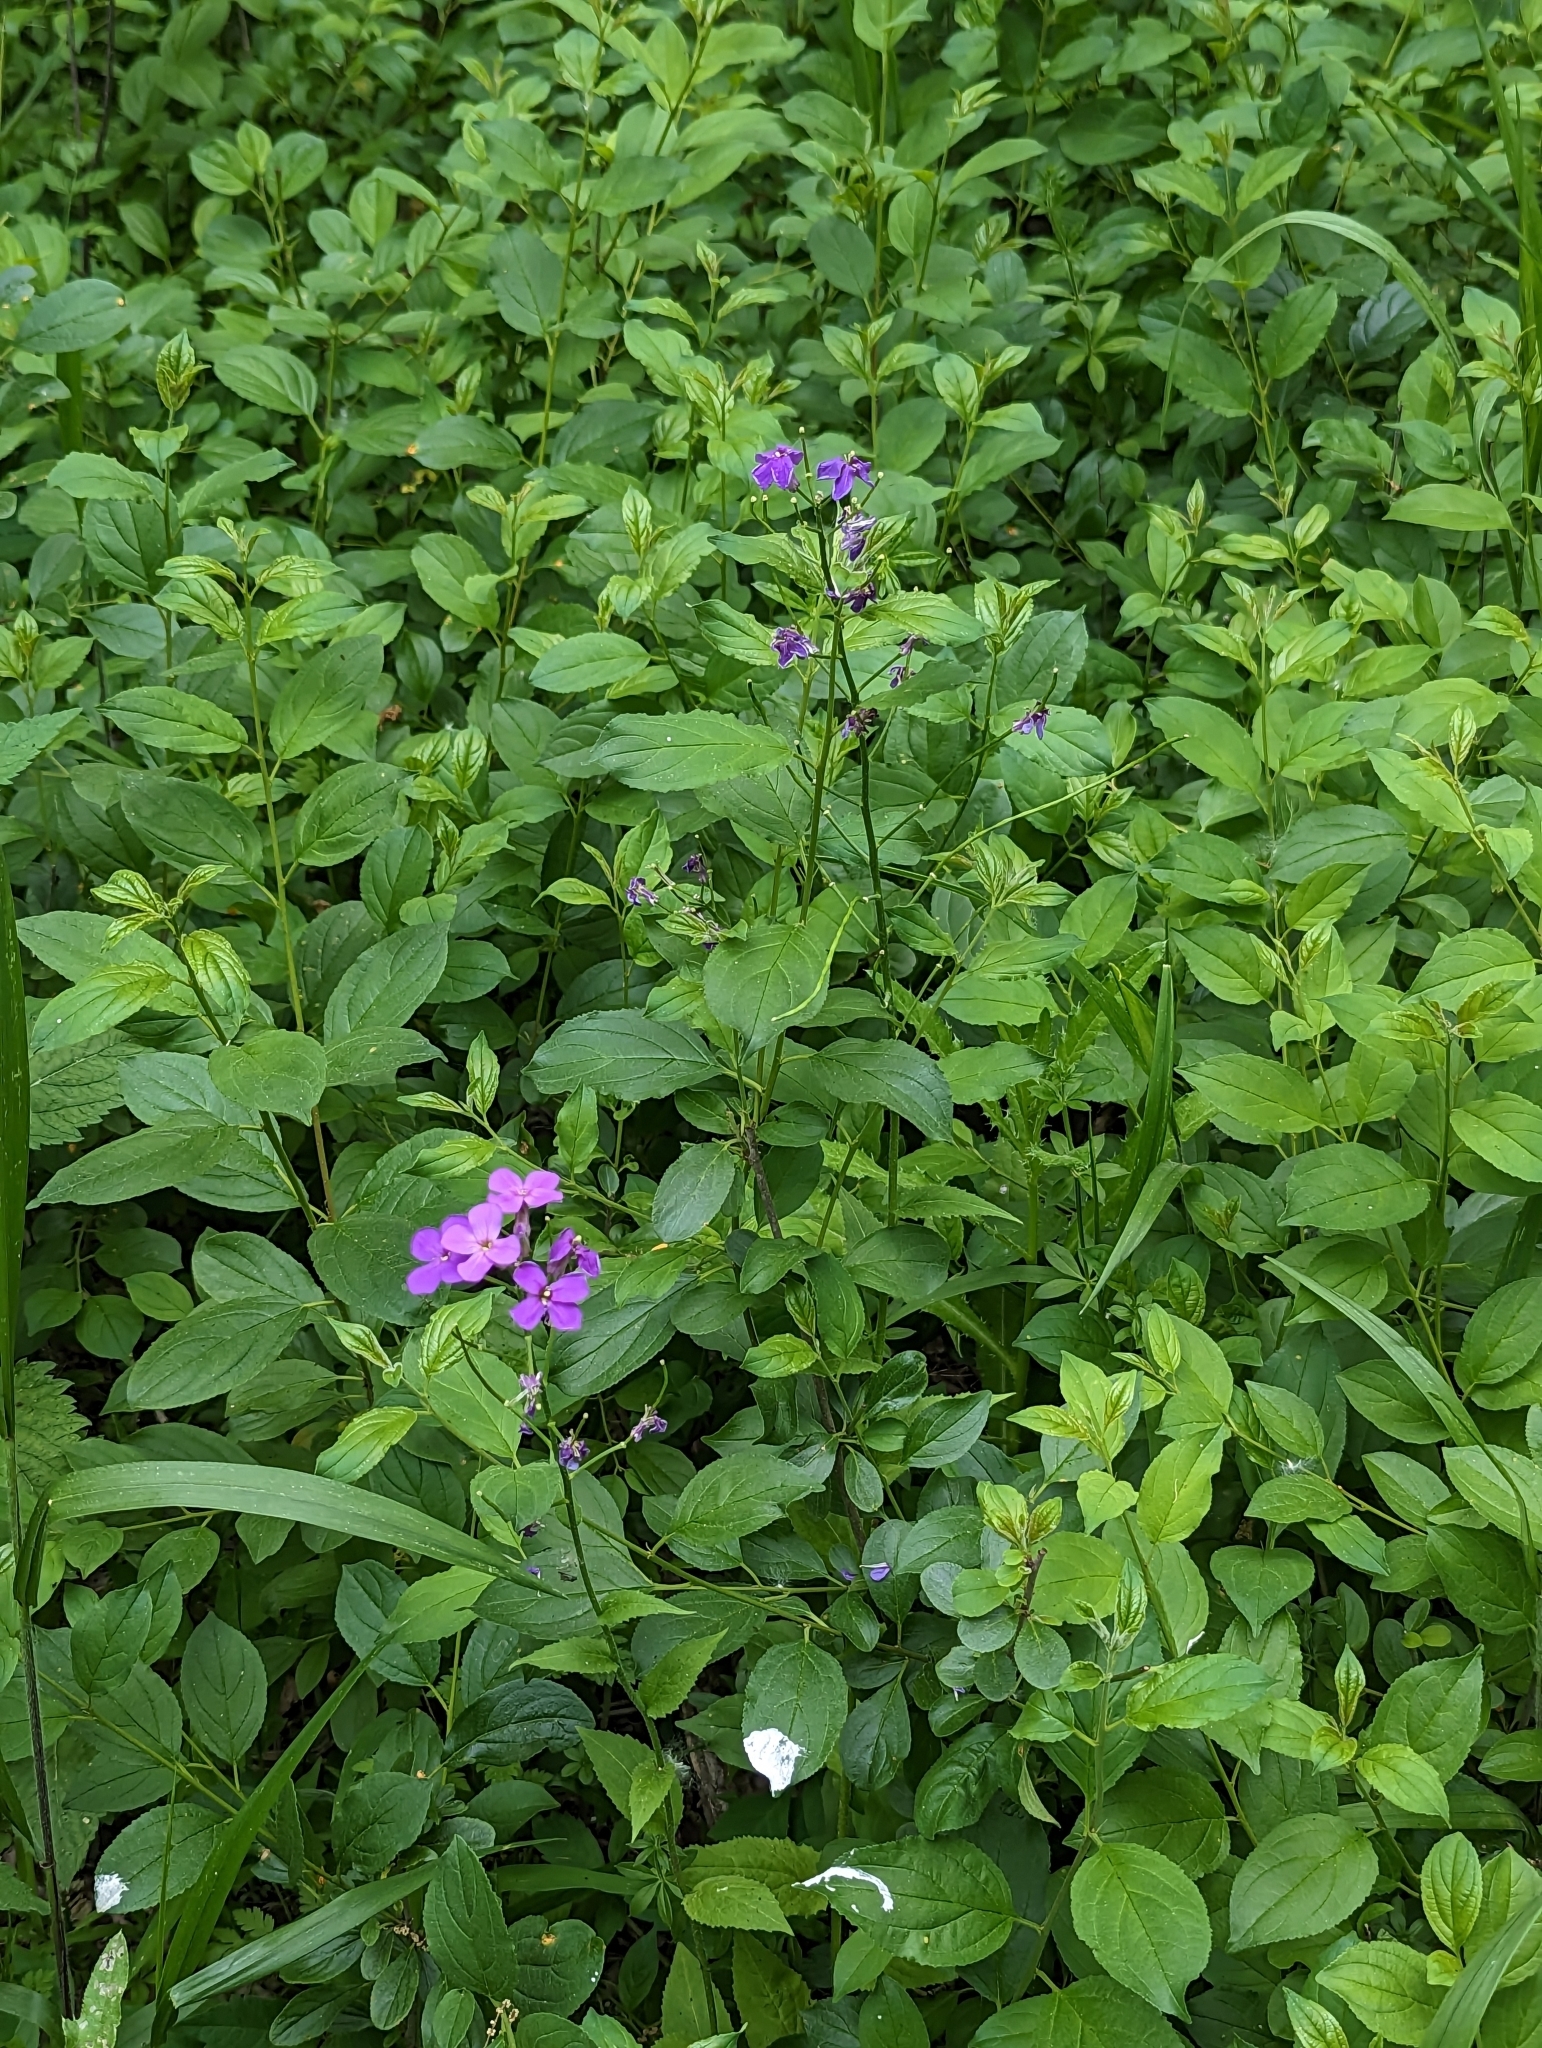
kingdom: Plantae
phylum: Tracheophyta
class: Magnoliopsida
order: Brassicales
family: Brassicaceae
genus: Hesperis
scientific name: Hesperis matronalis
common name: Dame's-violet
